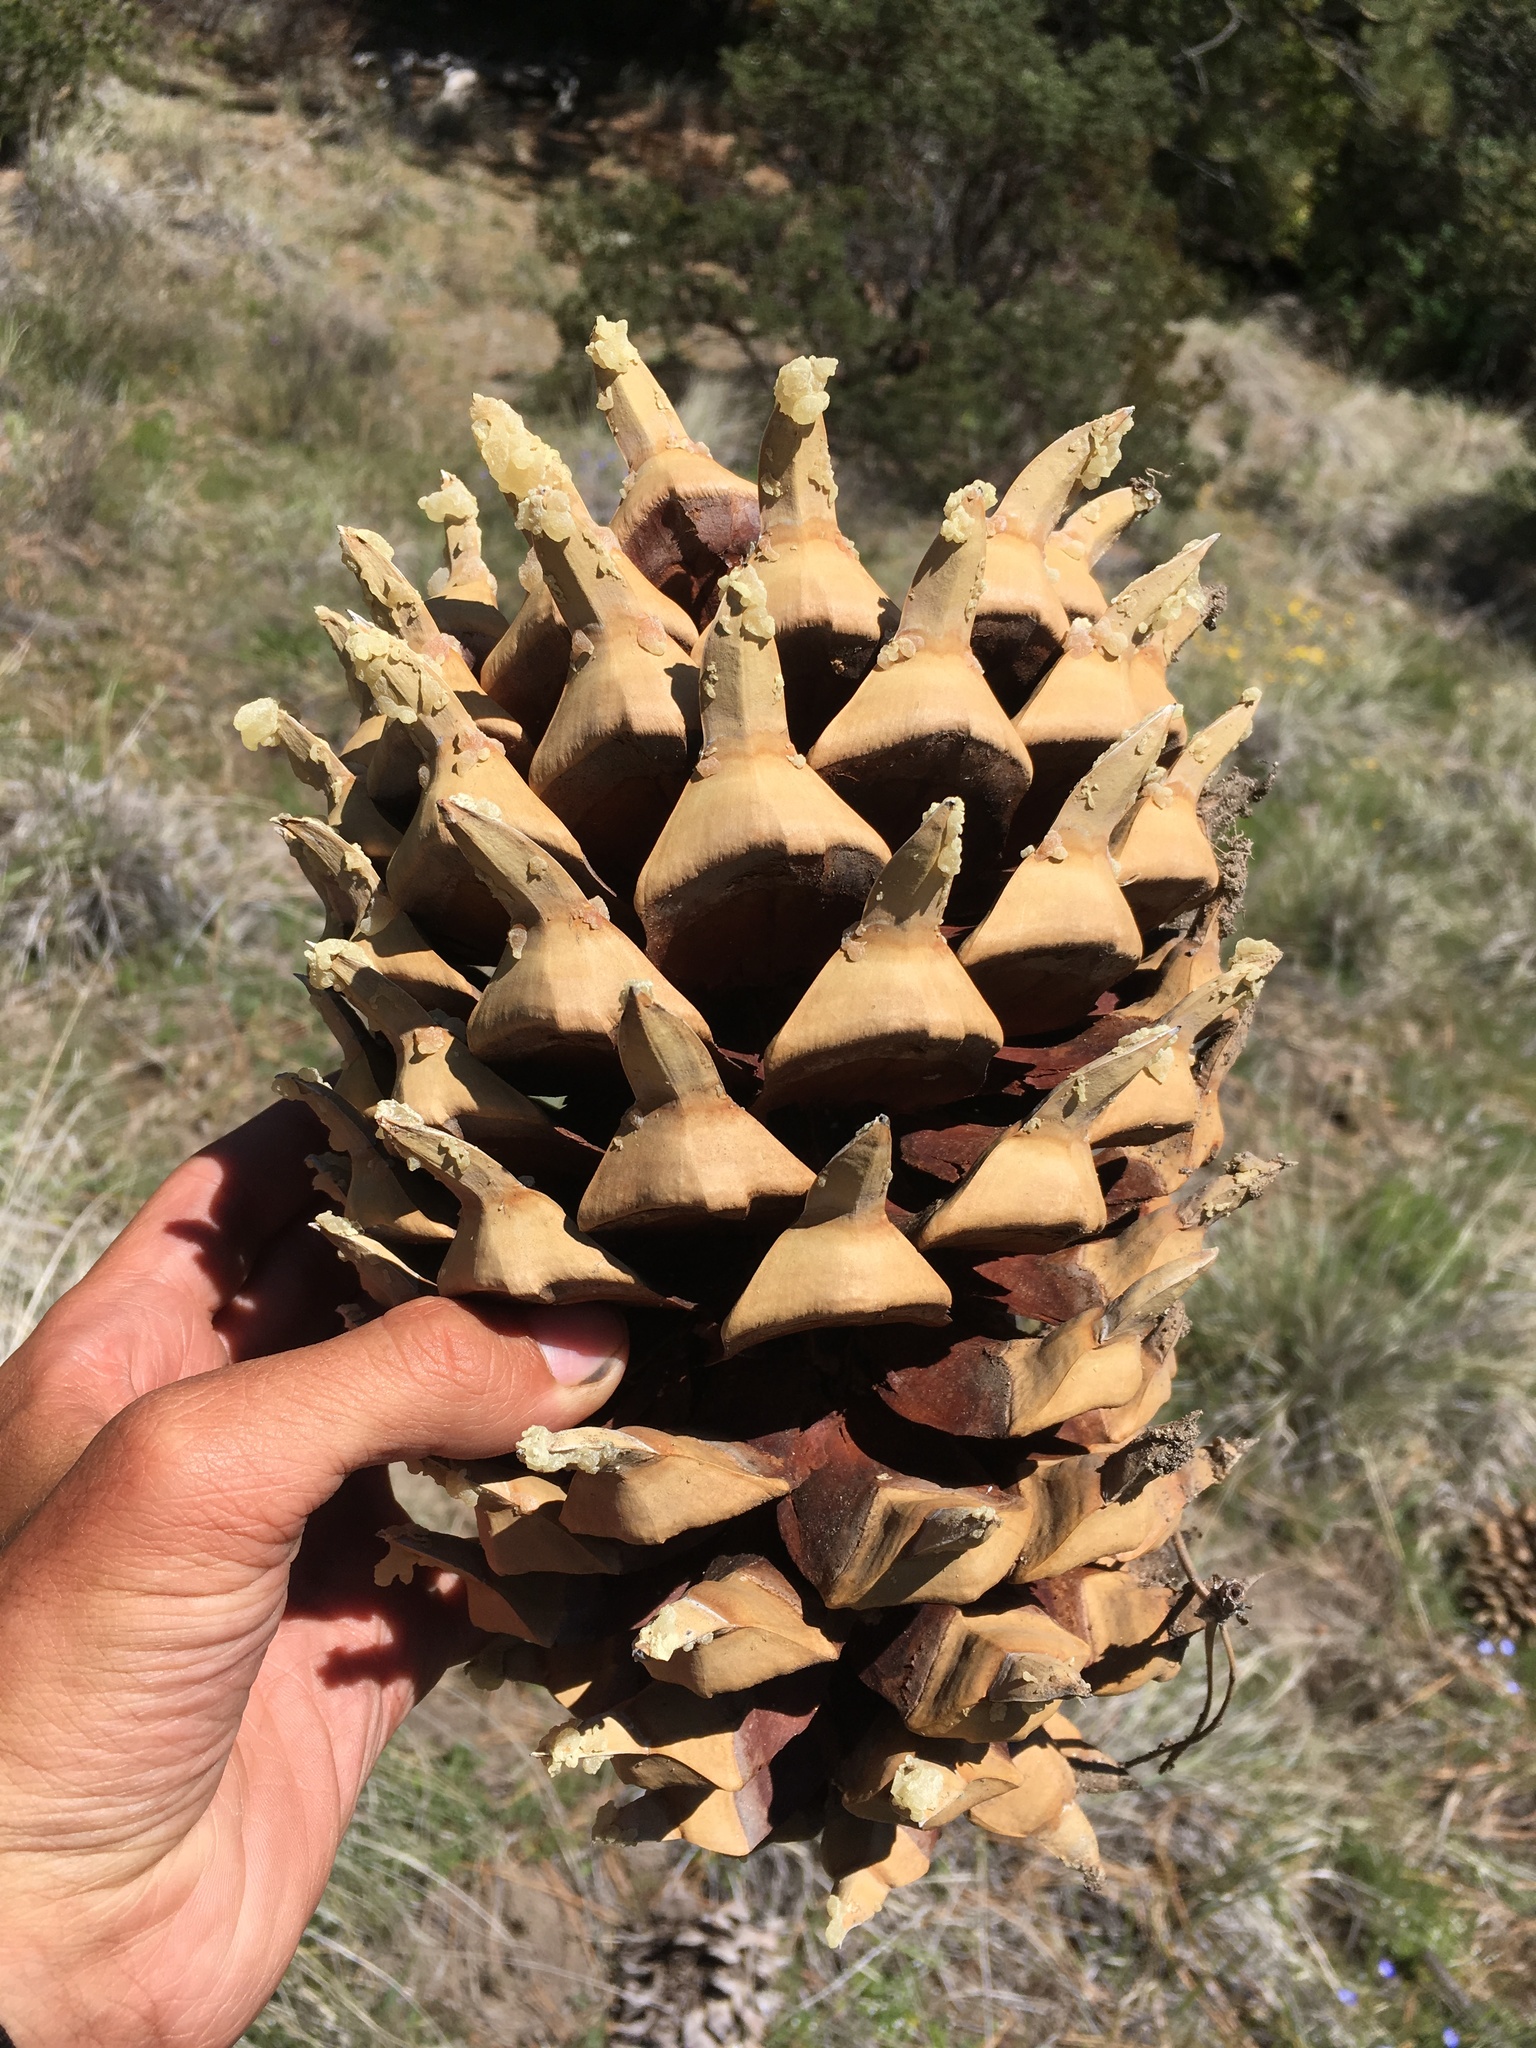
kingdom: Plantae
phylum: Tracheophyta
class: Pinopsida
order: Pinales
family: Pinaceae
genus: Pinus
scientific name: Pinus coulteri
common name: Coulter pine
